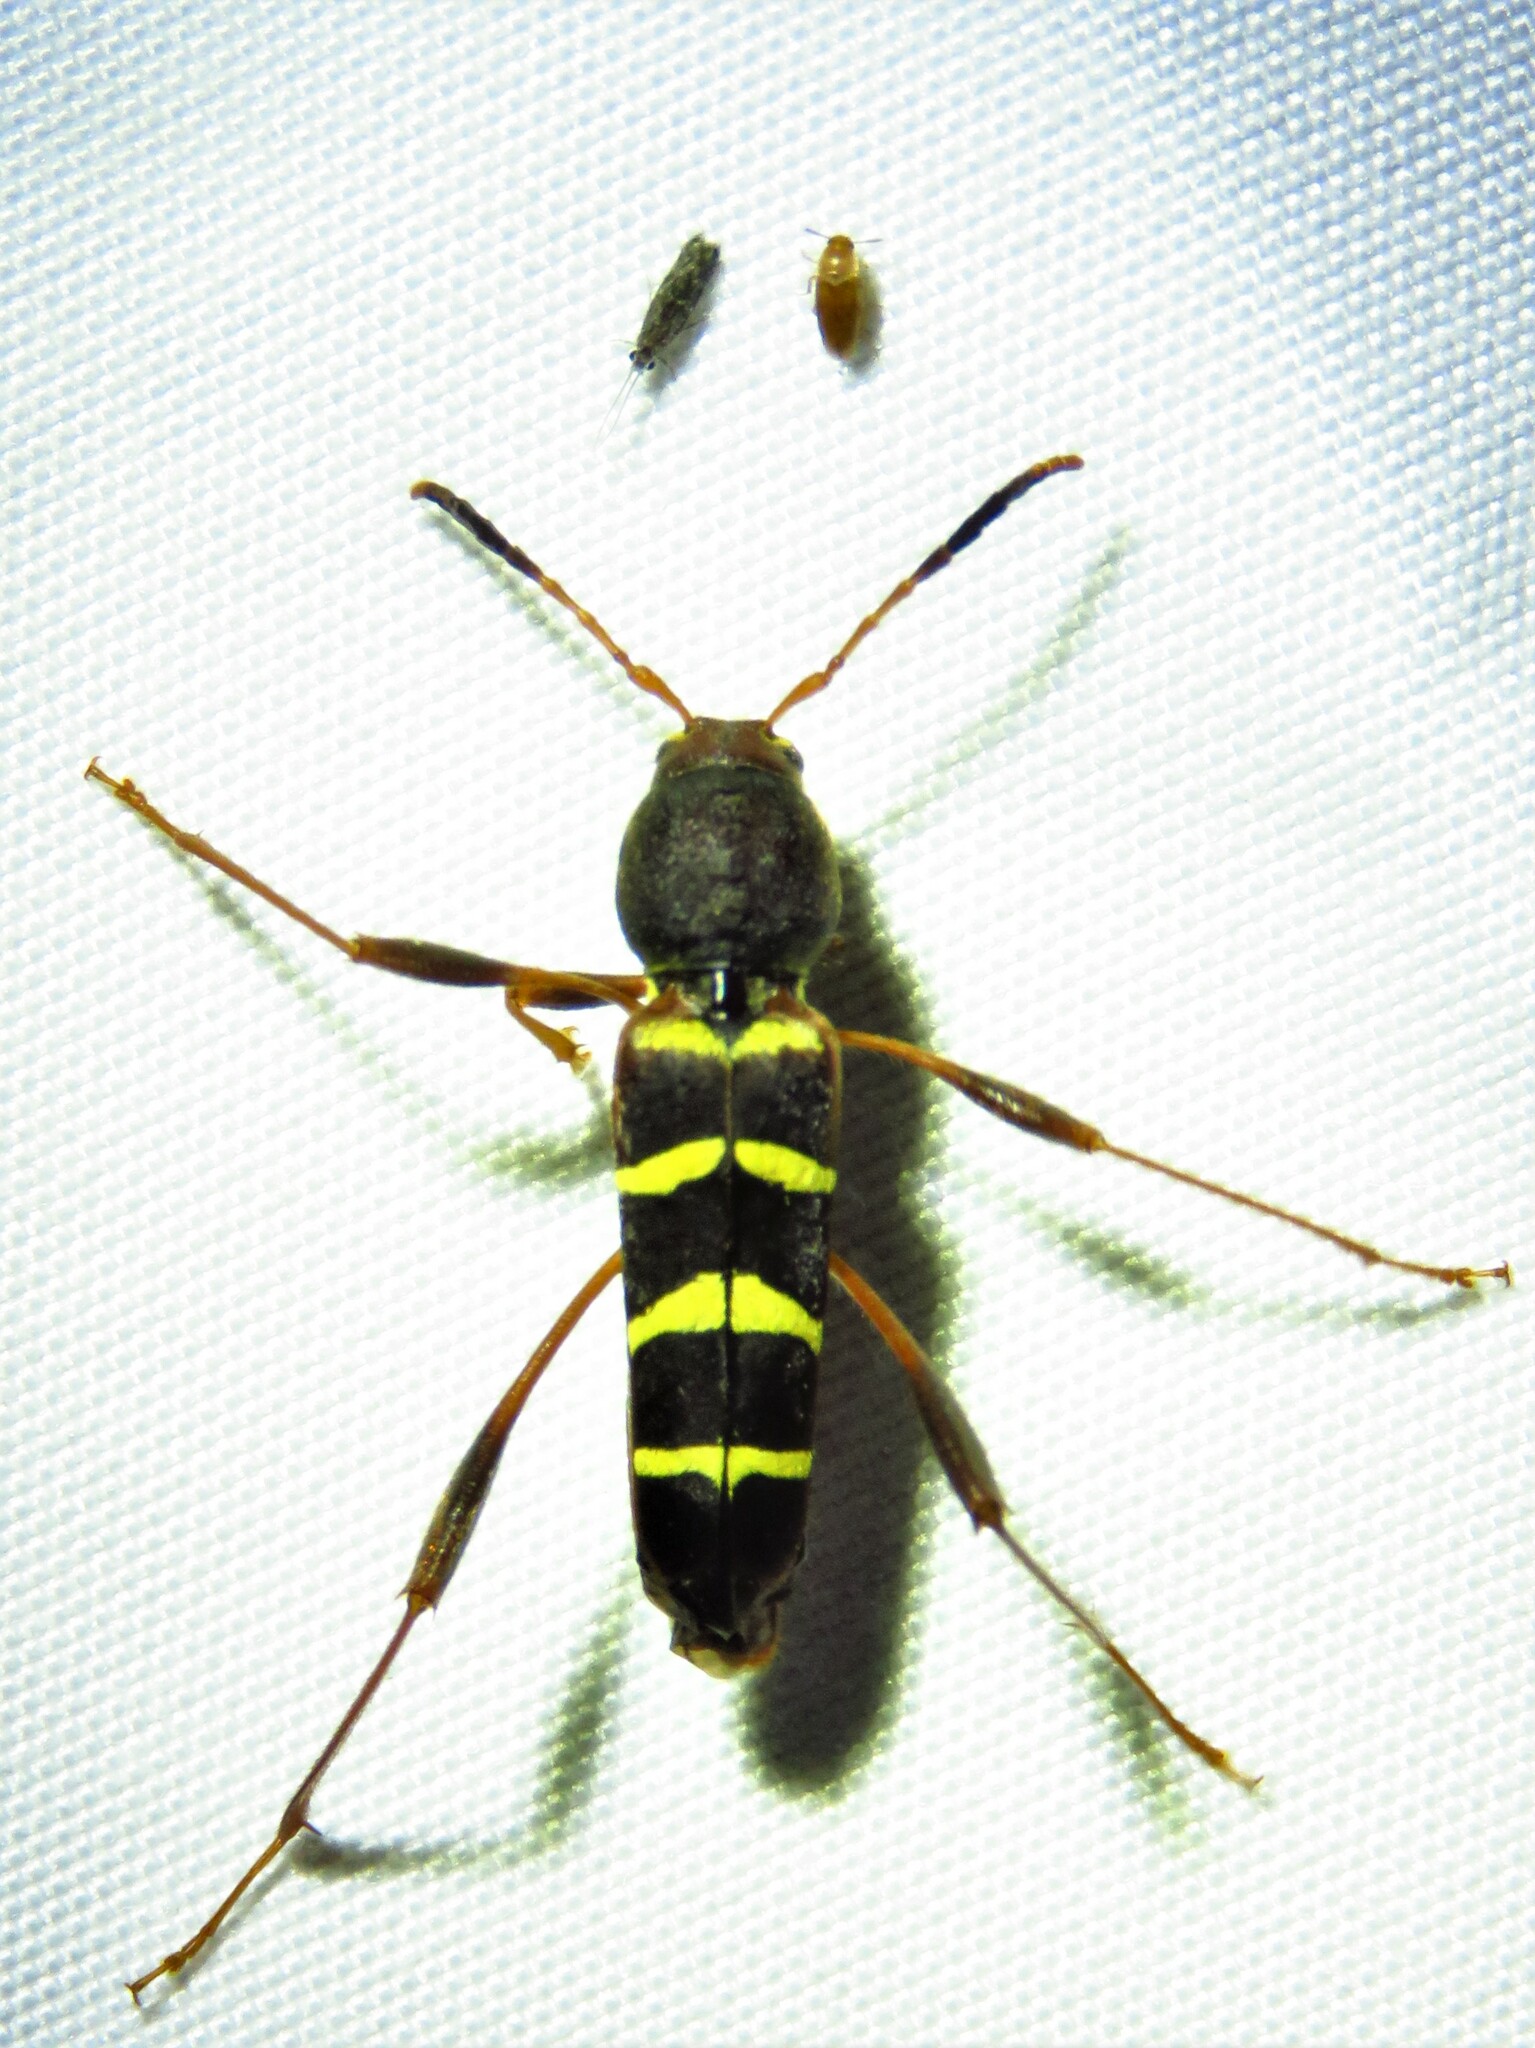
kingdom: Animalia
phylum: Arthropoda
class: Insecta
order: Coleoptera
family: Cerambycidae
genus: Neoclytus
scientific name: Neoclytus acuminatus
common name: Read-headed ash borer
